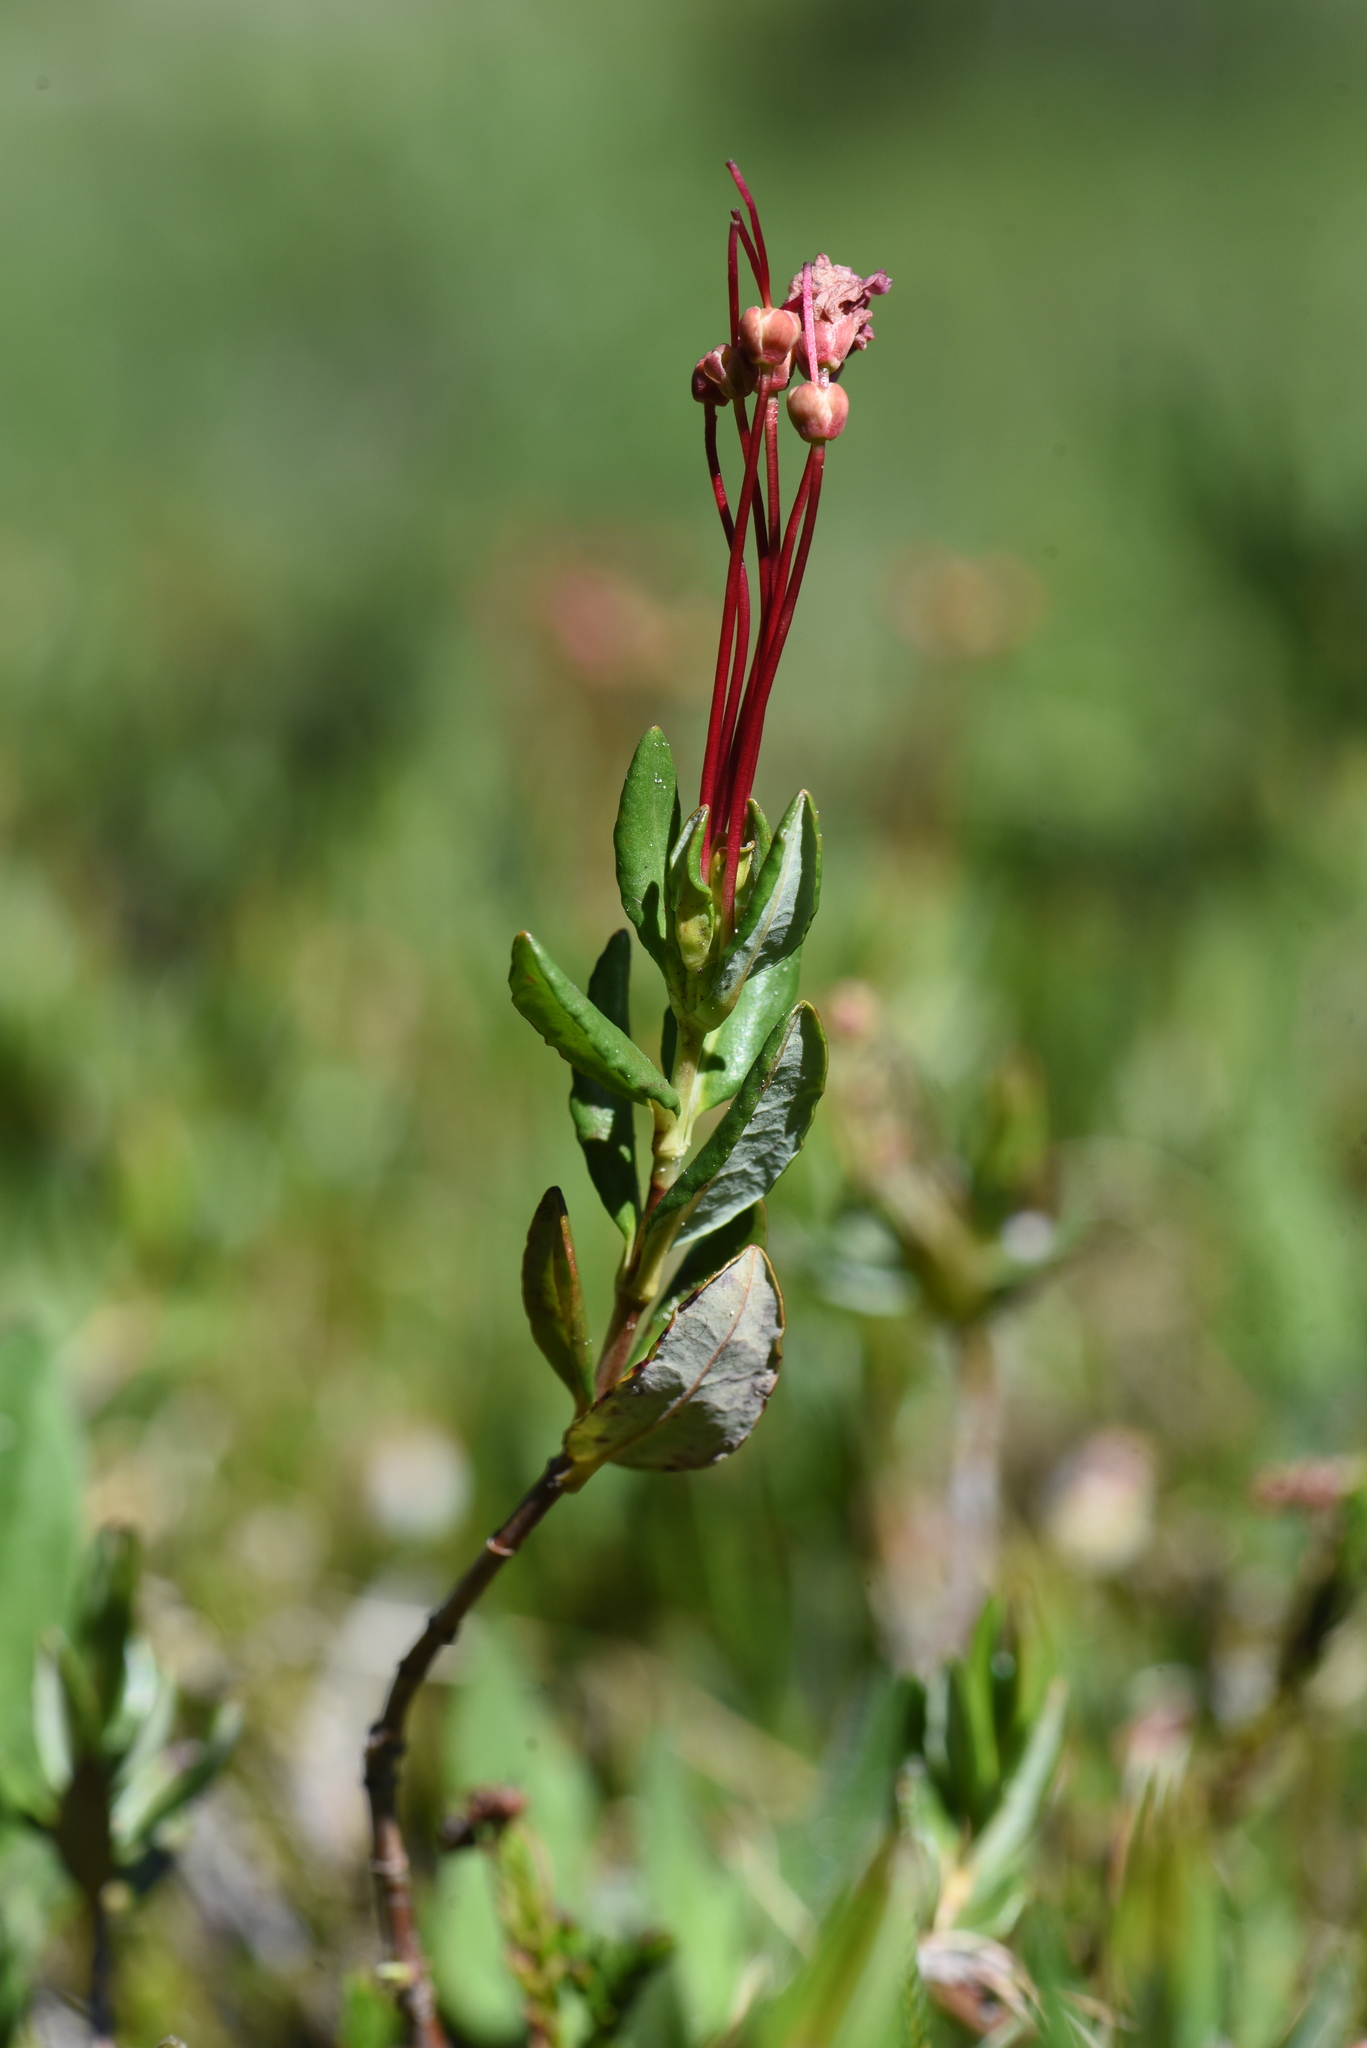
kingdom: Plantae
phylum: Tracheophyta
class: Magnoliopsida
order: Ericales
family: Ericaceae
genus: Kalmia
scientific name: Kalmia microphylla
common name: Alpine bog laurel
